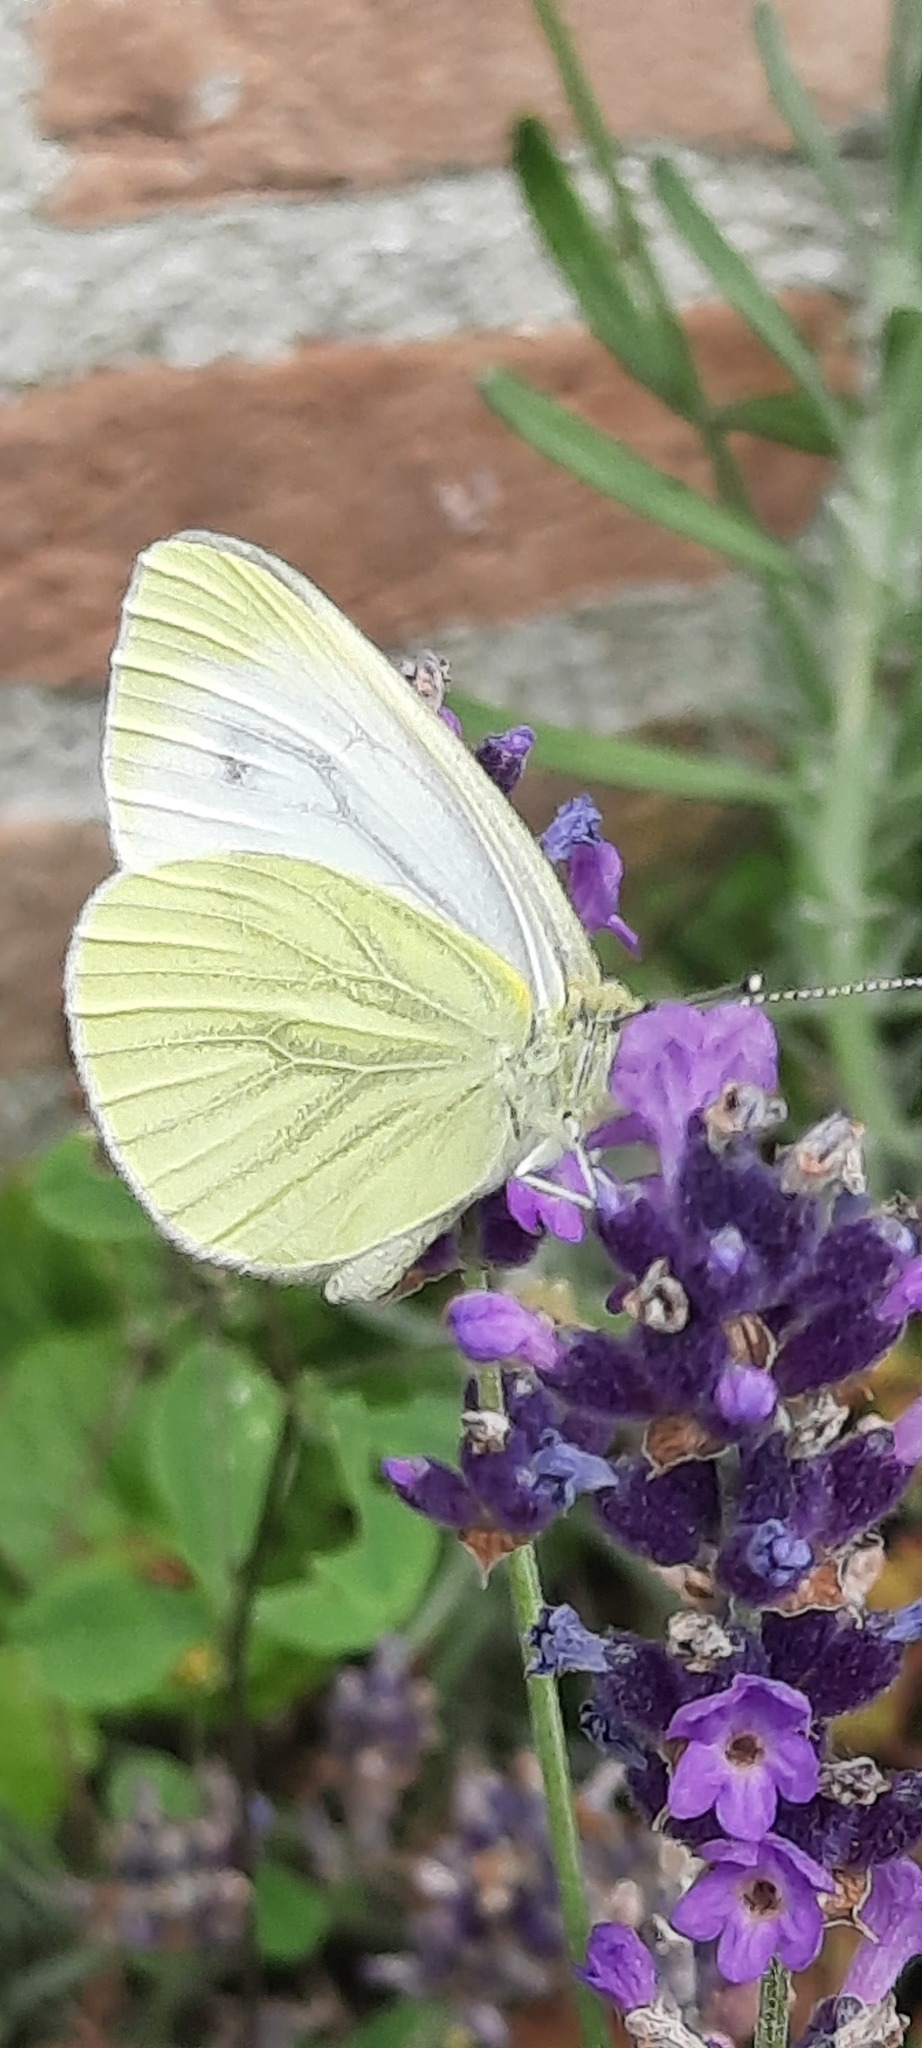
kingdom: Animalia
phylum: Arthropoda
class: Insecta
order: Lepidoptera
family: Pieridae
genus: Pieris
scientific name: Pieris napi
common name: Green-veined white
